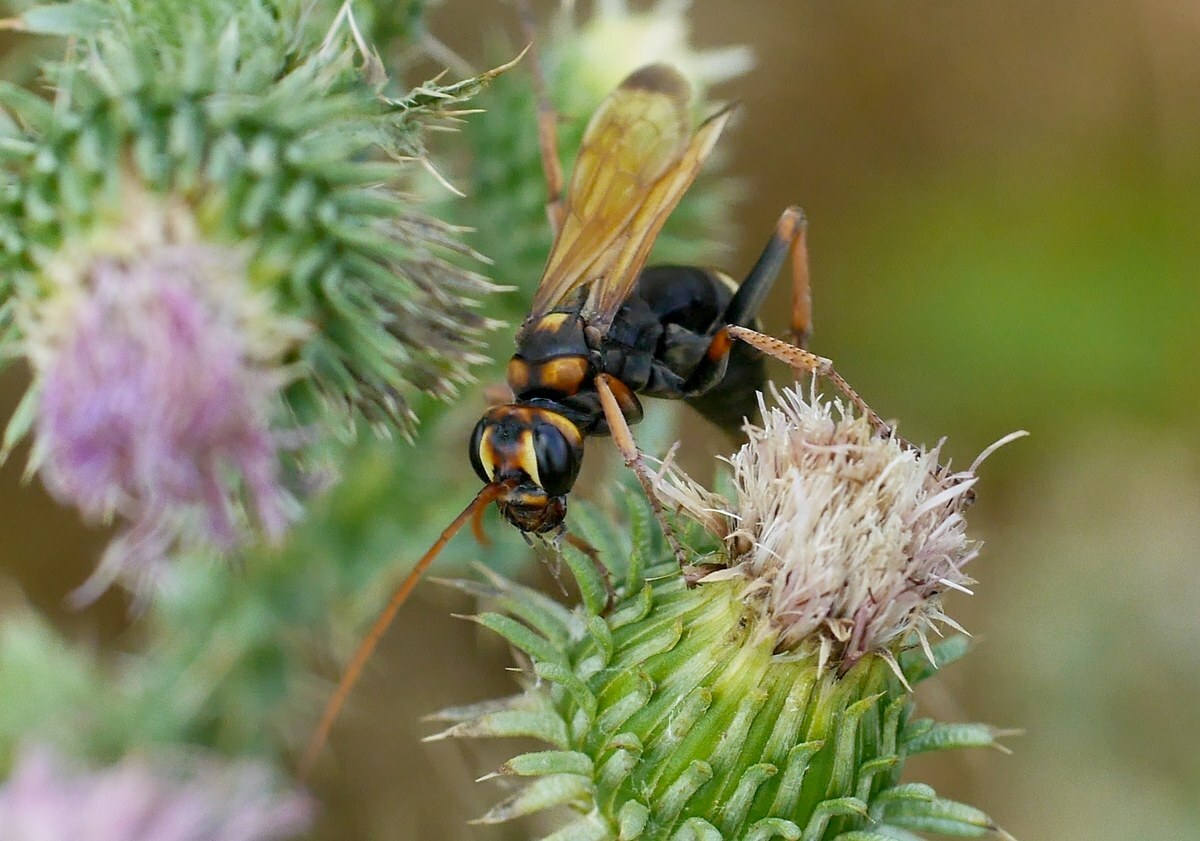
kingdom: Animalia
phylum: Arthropoda
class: Insecta
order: Hymenoptera
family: Pompilidae
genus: Cryptocheilus
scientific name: Cryptocheilus octomaculatus
